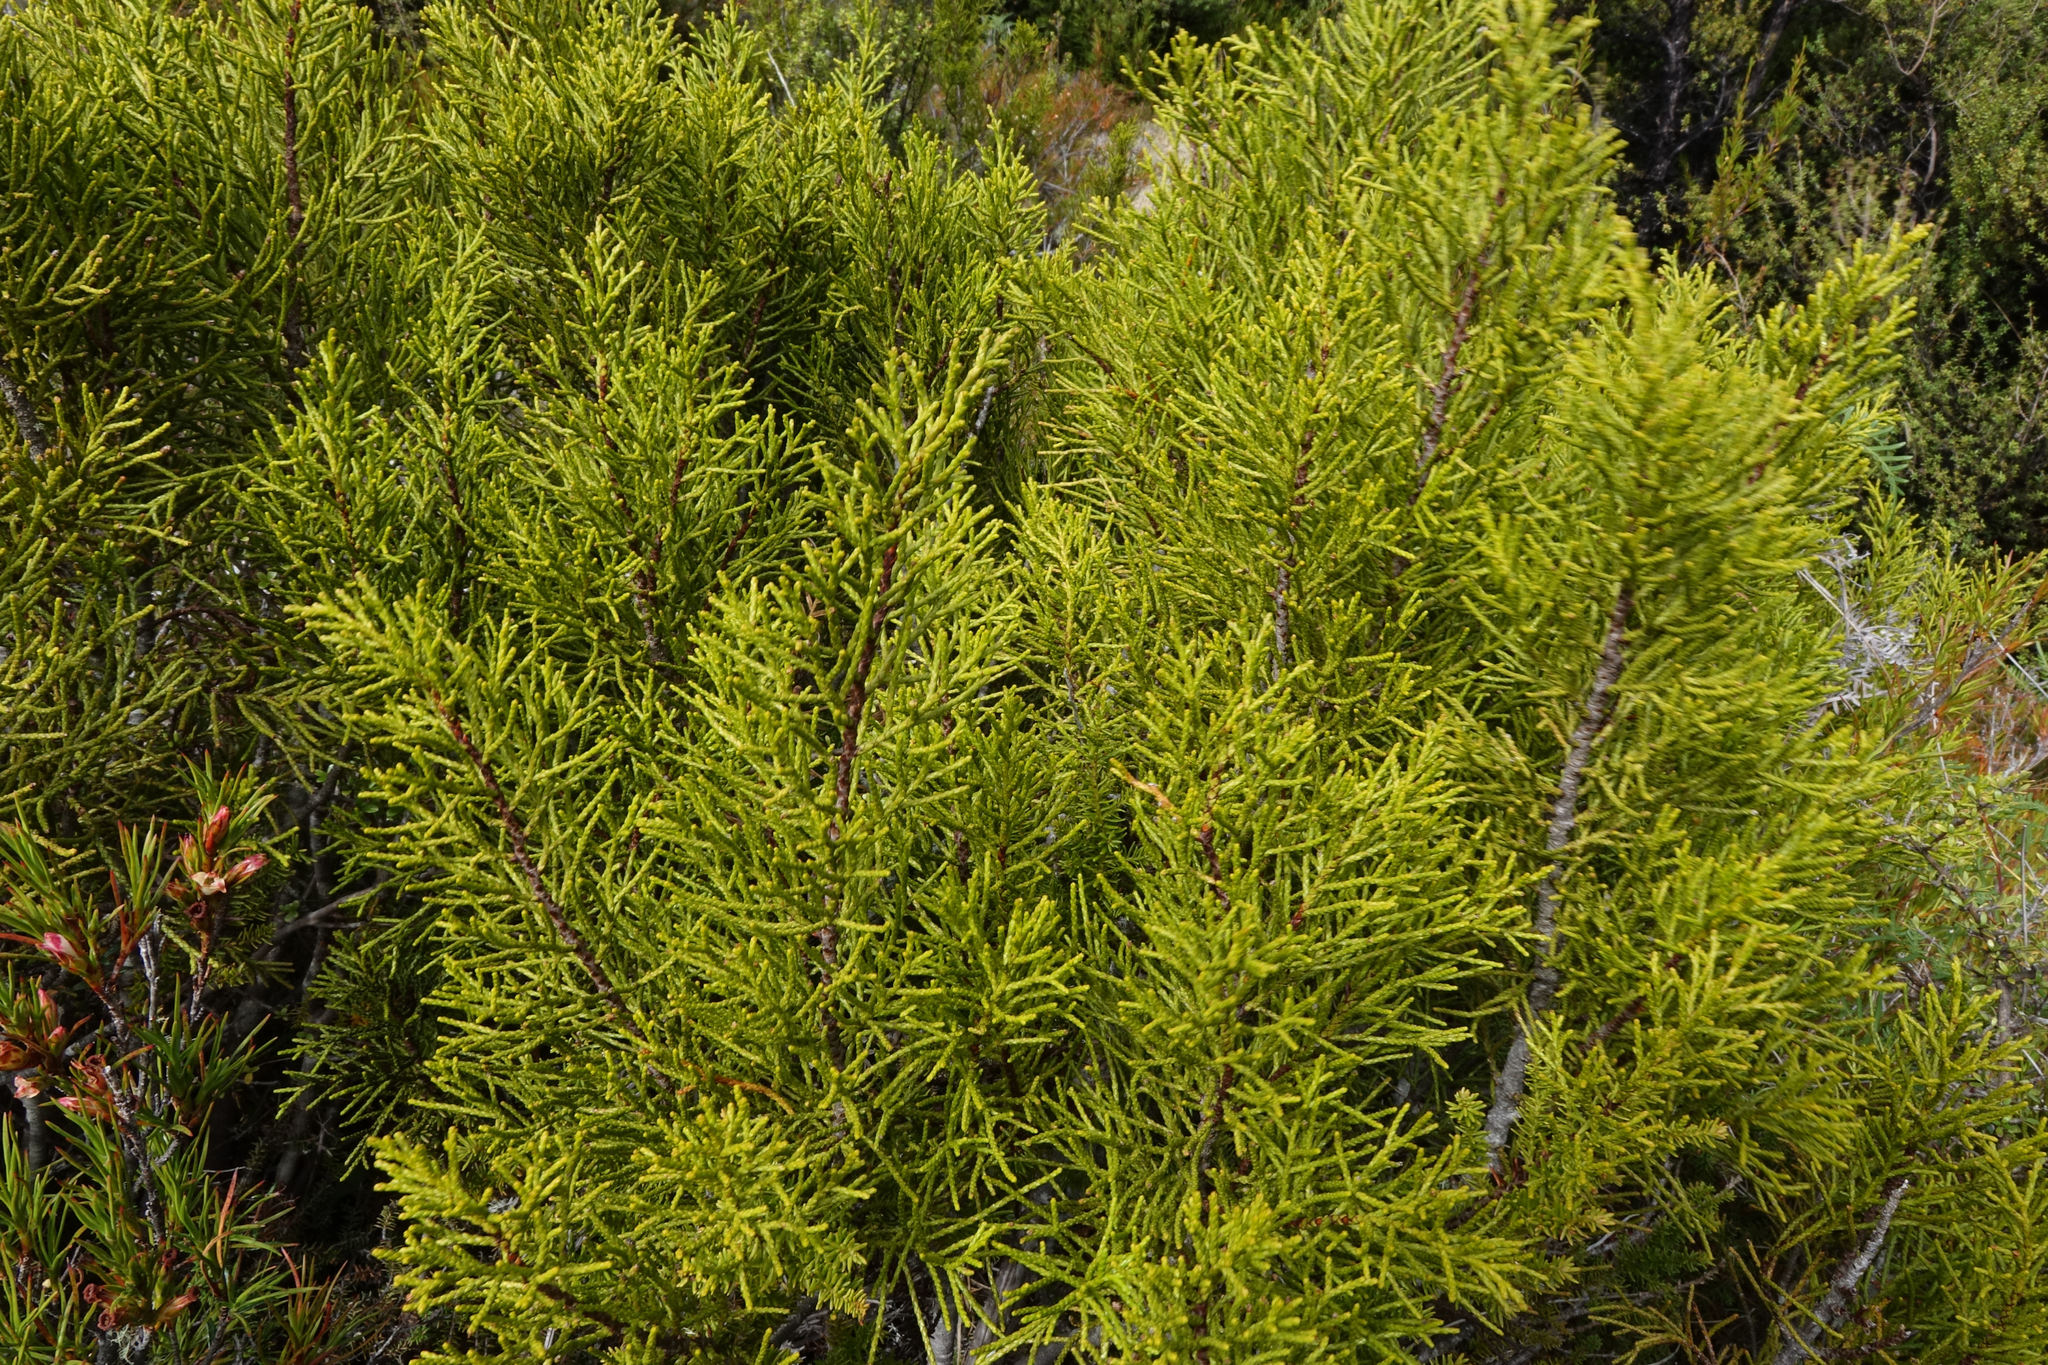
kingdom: Plantae
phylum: Tracheophyta
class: Pinopsida
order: Pinales
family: Podocarpaceae
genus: Halocarpus
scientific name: Halocarpus bidwillii
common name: Bog pine
